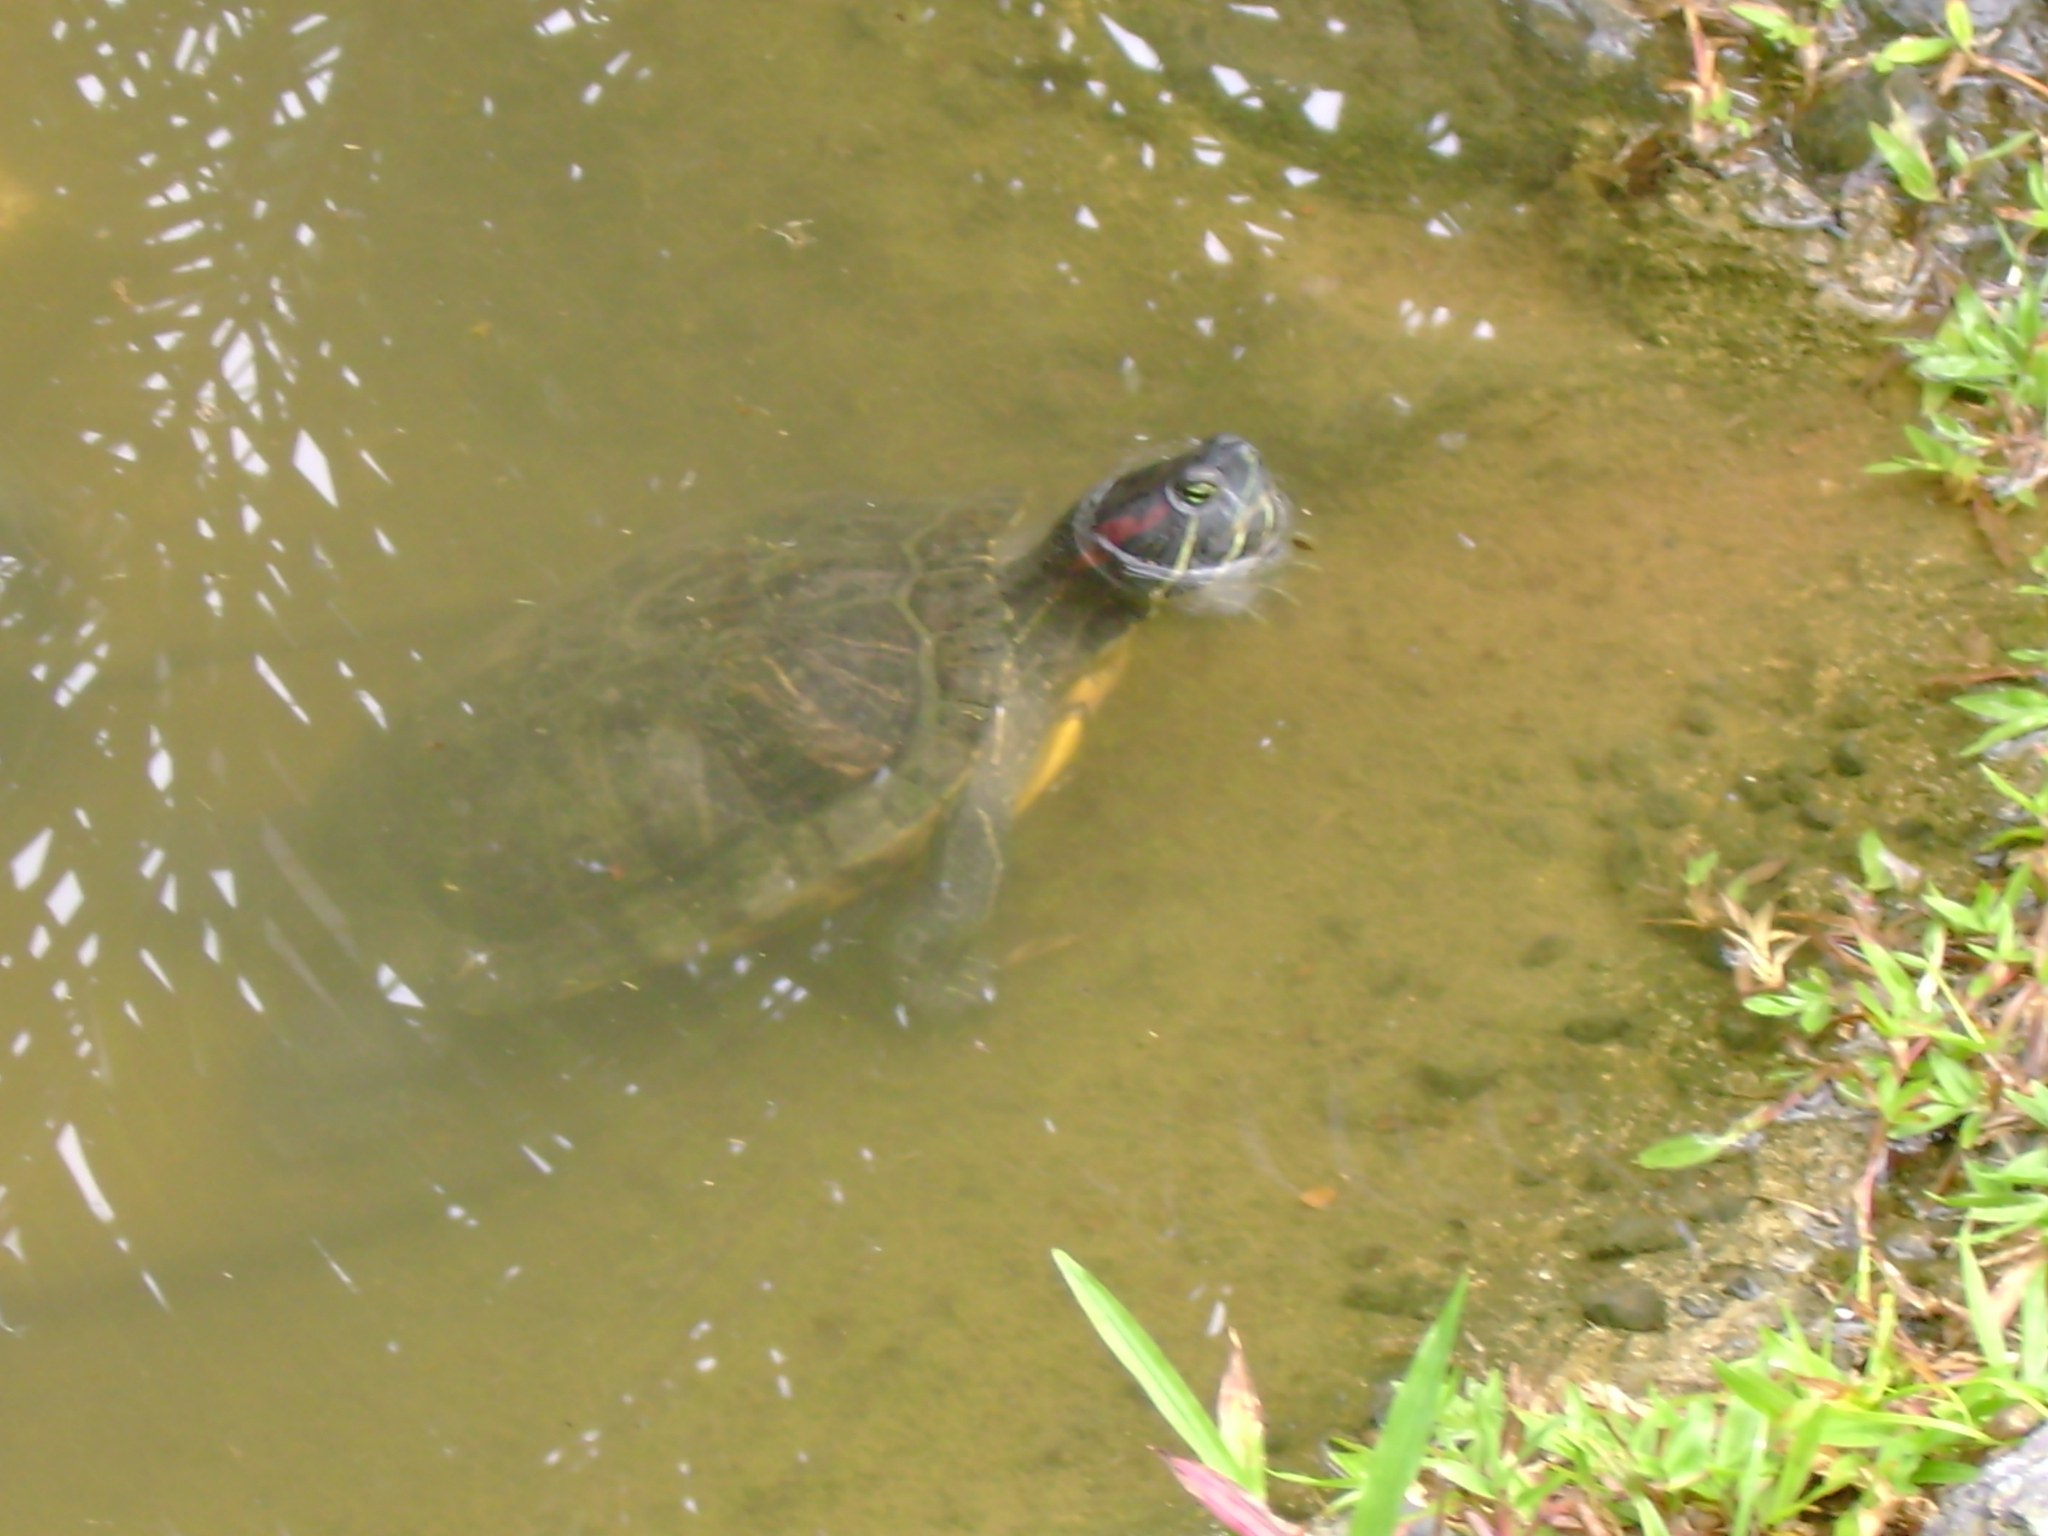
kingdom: Animalia
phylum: Chordata
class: Testudines
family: Emydidae
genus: Trachemys
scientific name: Trachemys scripta
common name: Slider
